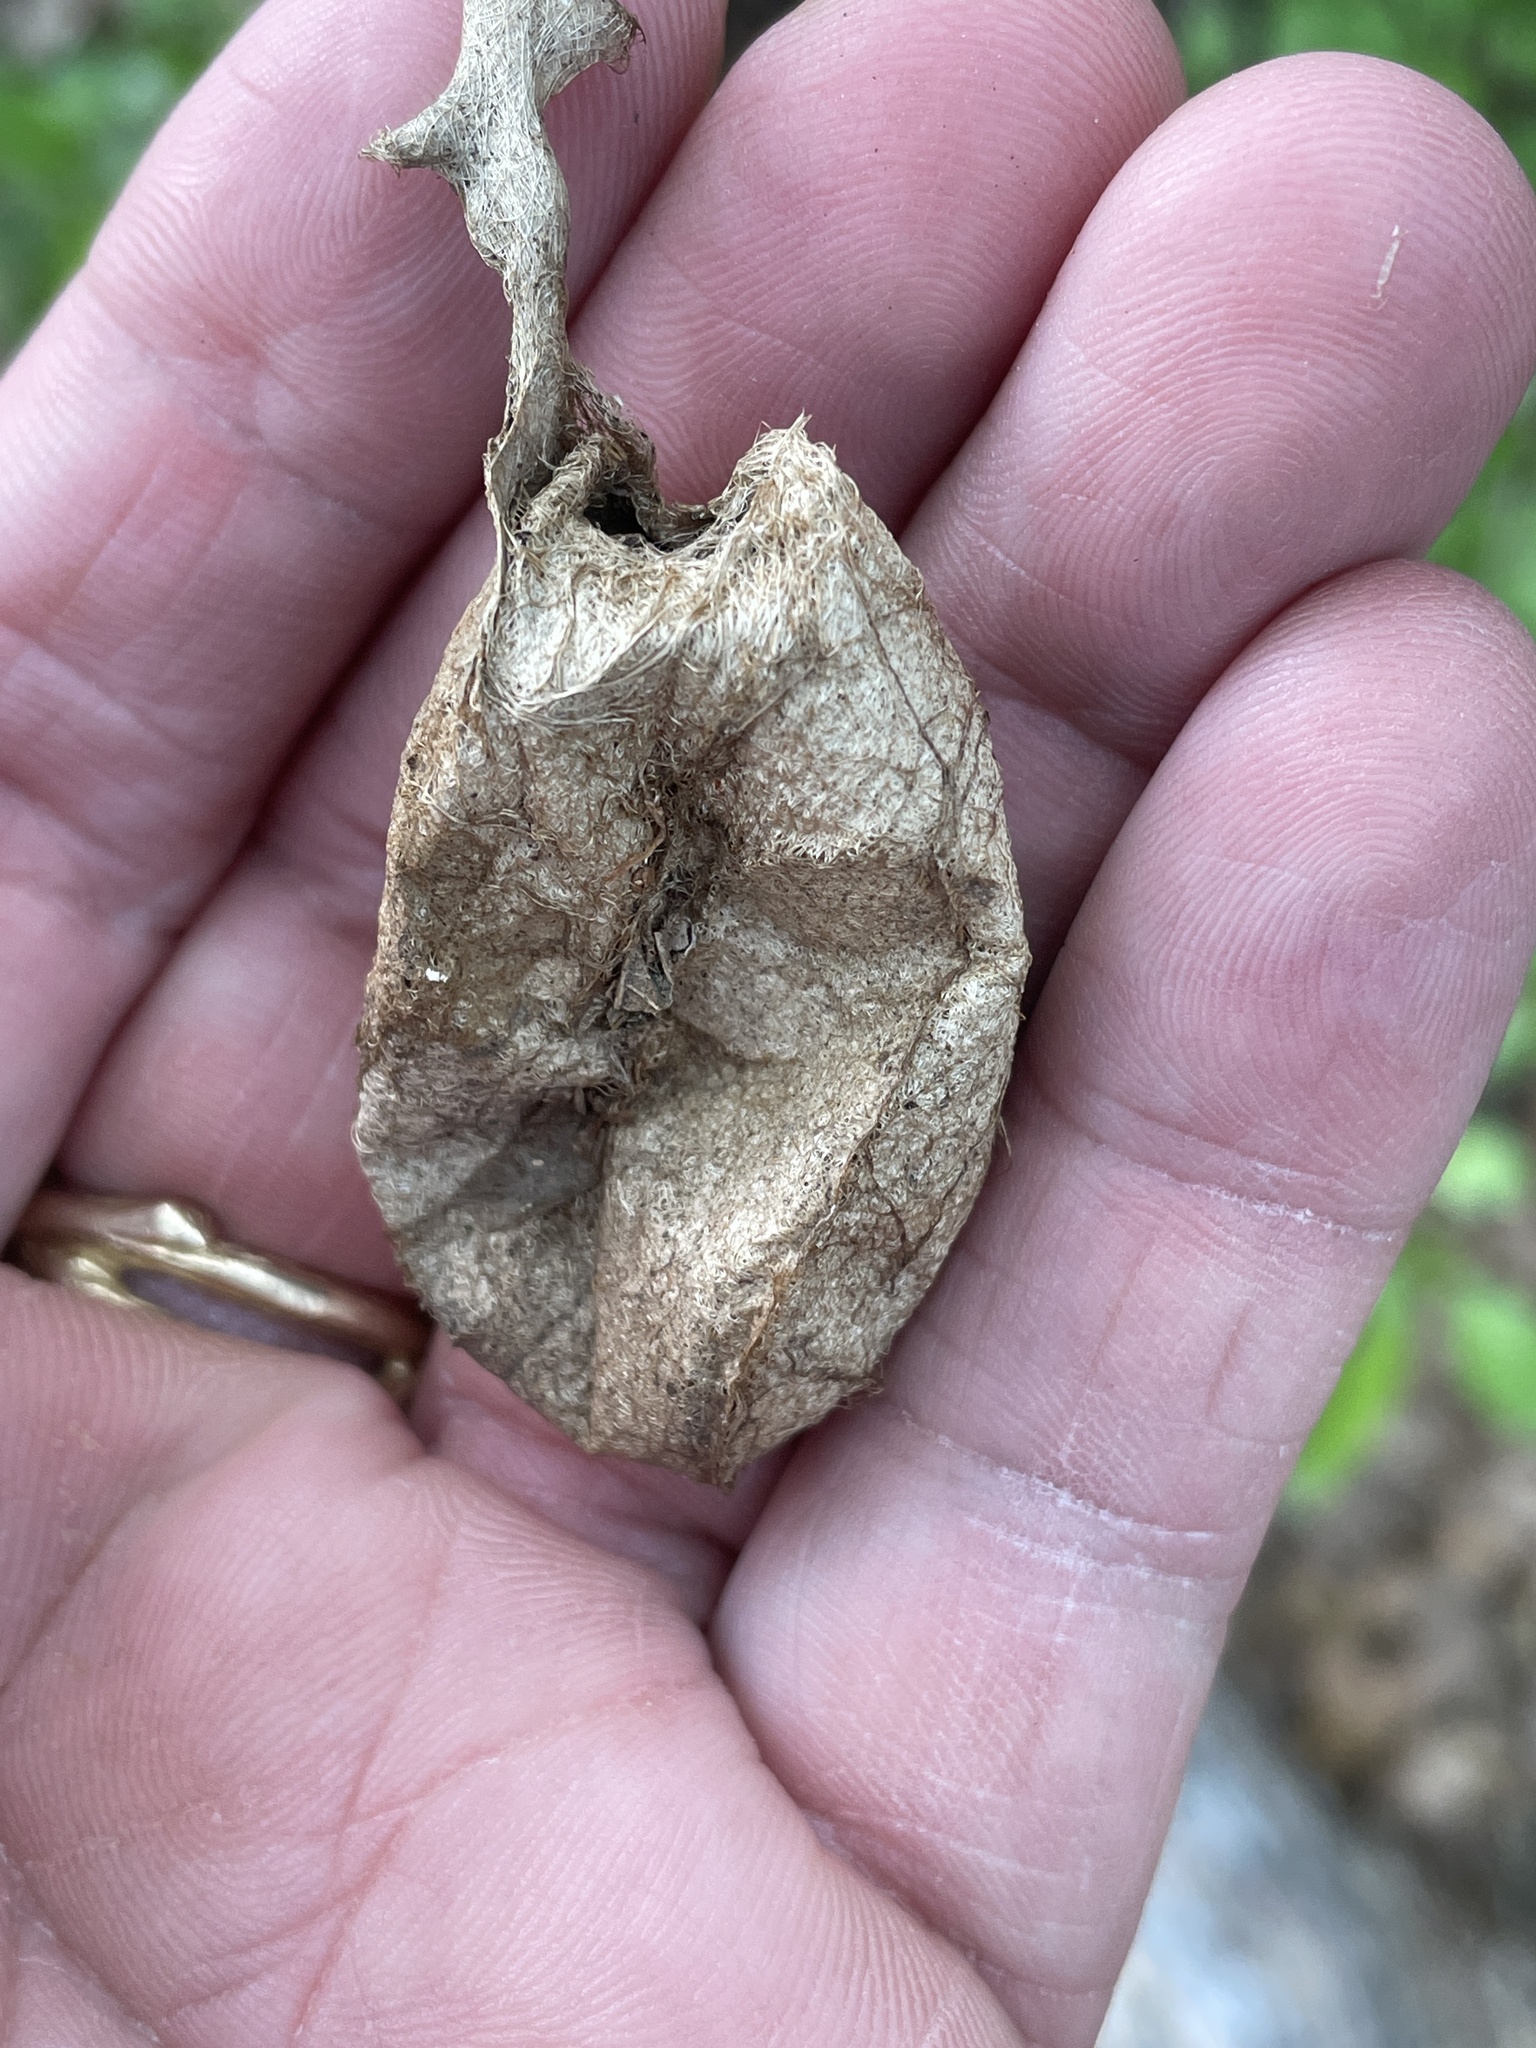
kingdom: Animalia
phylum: Arthropoda
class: Insecta
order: Lepidoptera
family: Saturniidae
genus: Antheraea
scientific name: Antheraea polyphemus
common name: Polyphemus moth
